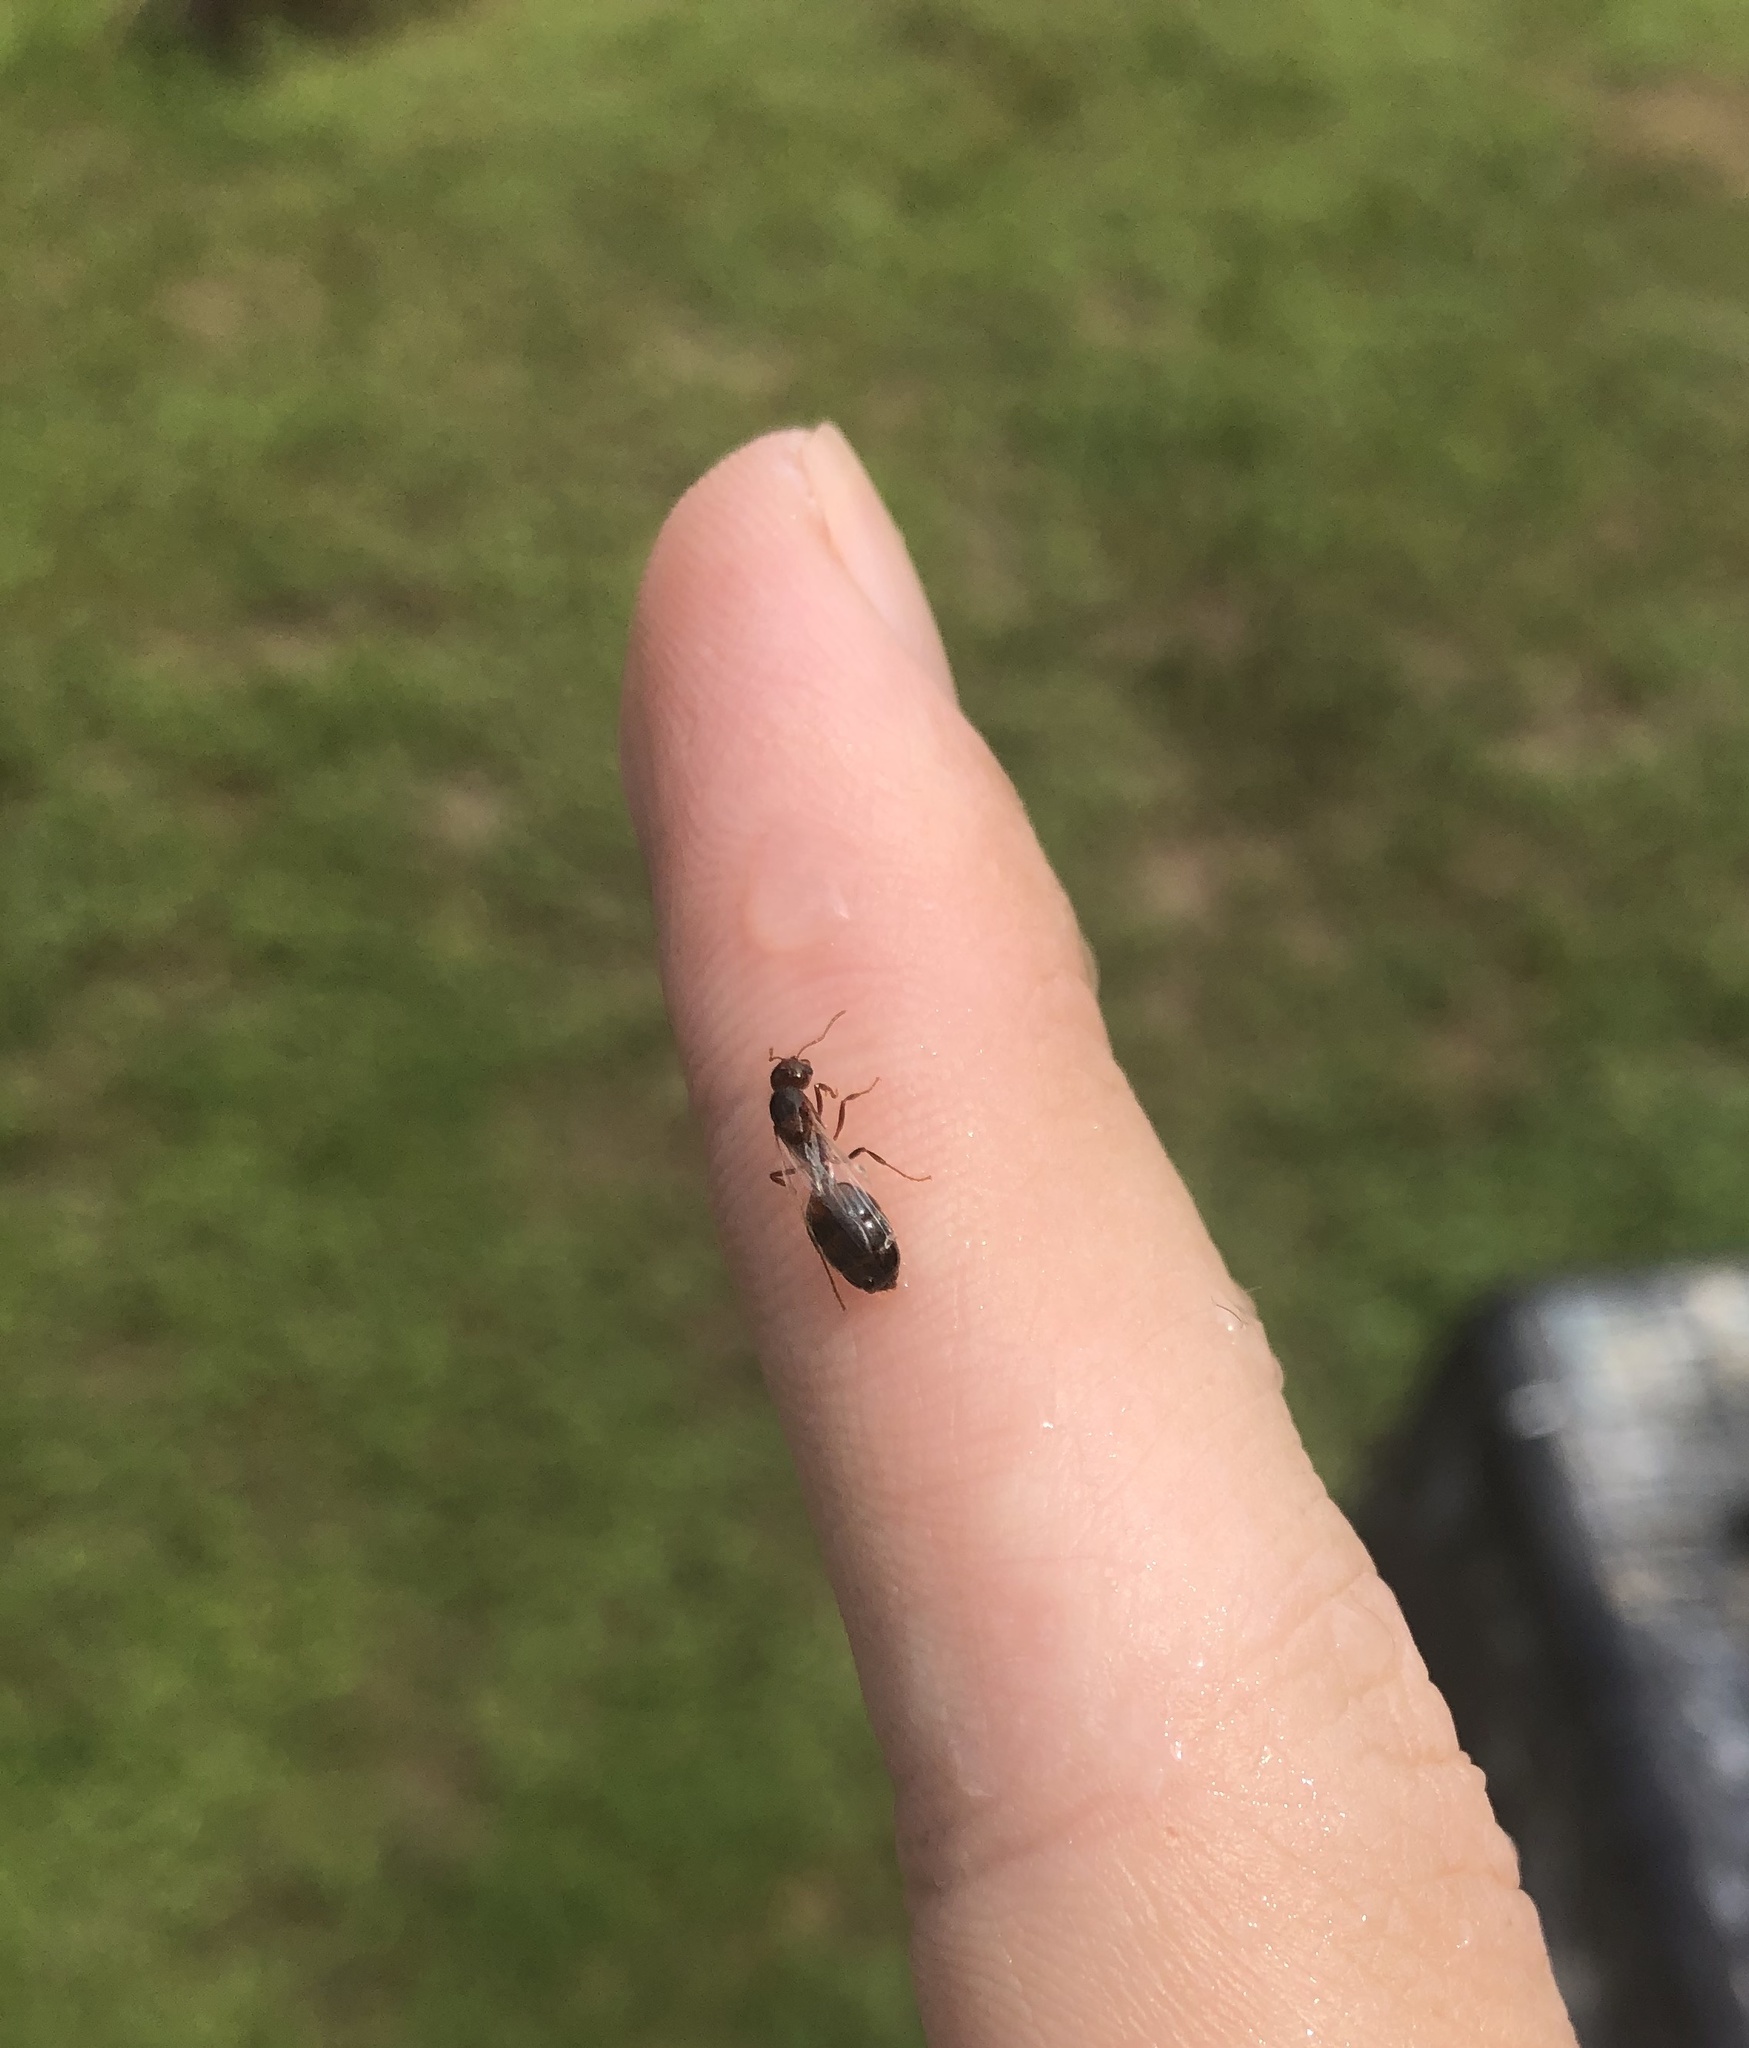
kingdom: Animalia
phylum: Arthropoda
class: Insecta
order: Hymenoptera
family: Formicidae
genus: Solenopsis
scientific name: Solenopsis invicta
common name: Red imported fire ant
